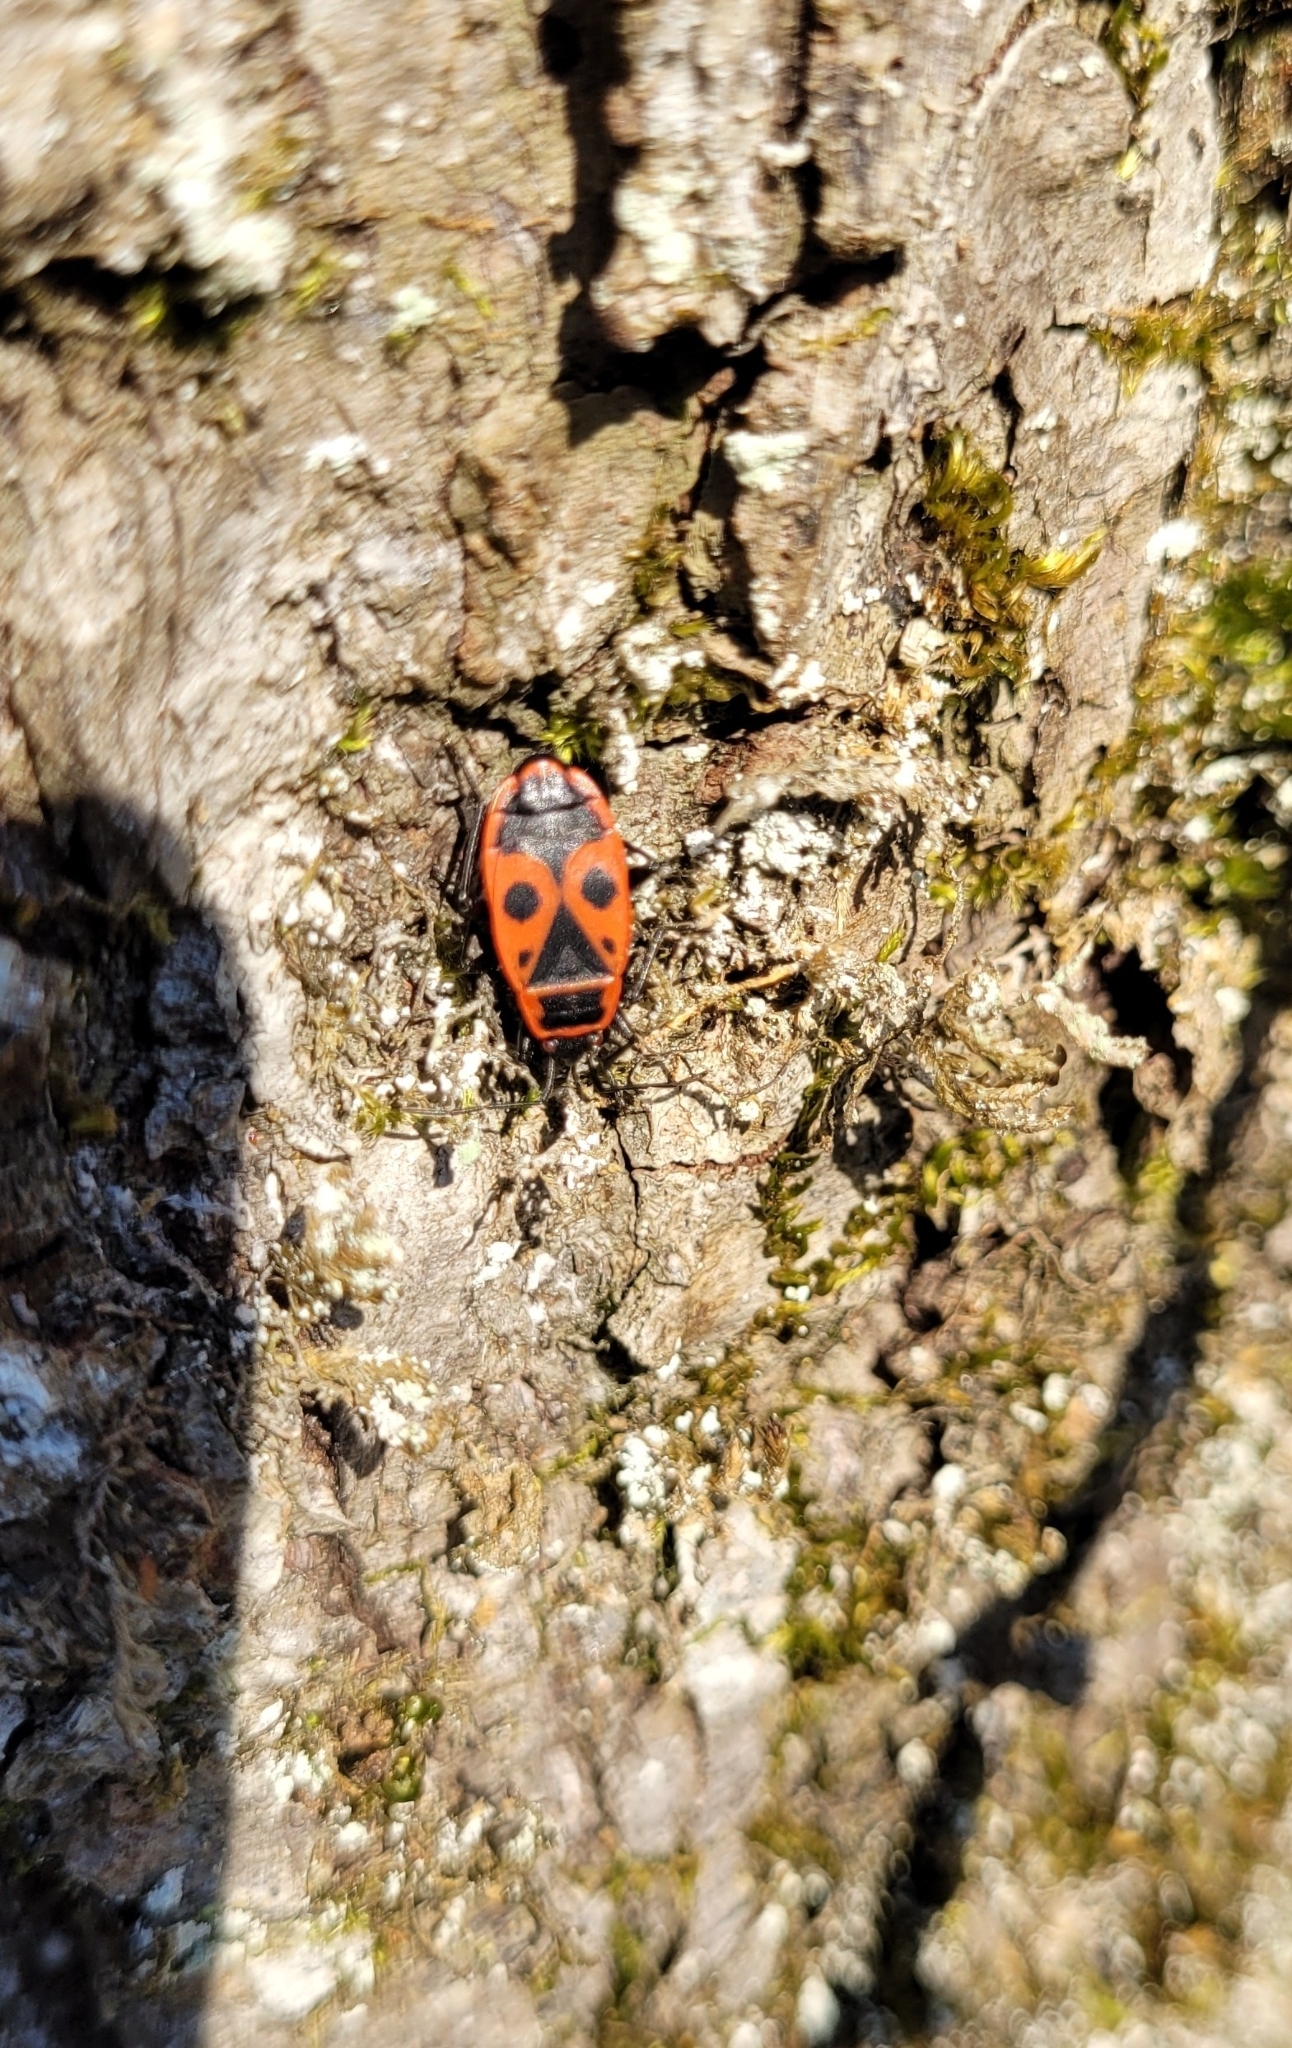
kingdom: Animalia
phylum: Arthropoda
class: Insecta
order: Hemiptera
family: Pyrrhocoridae
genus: Pyrrhocoris
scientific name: Pyrrhocoris apterus
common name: Firebug
